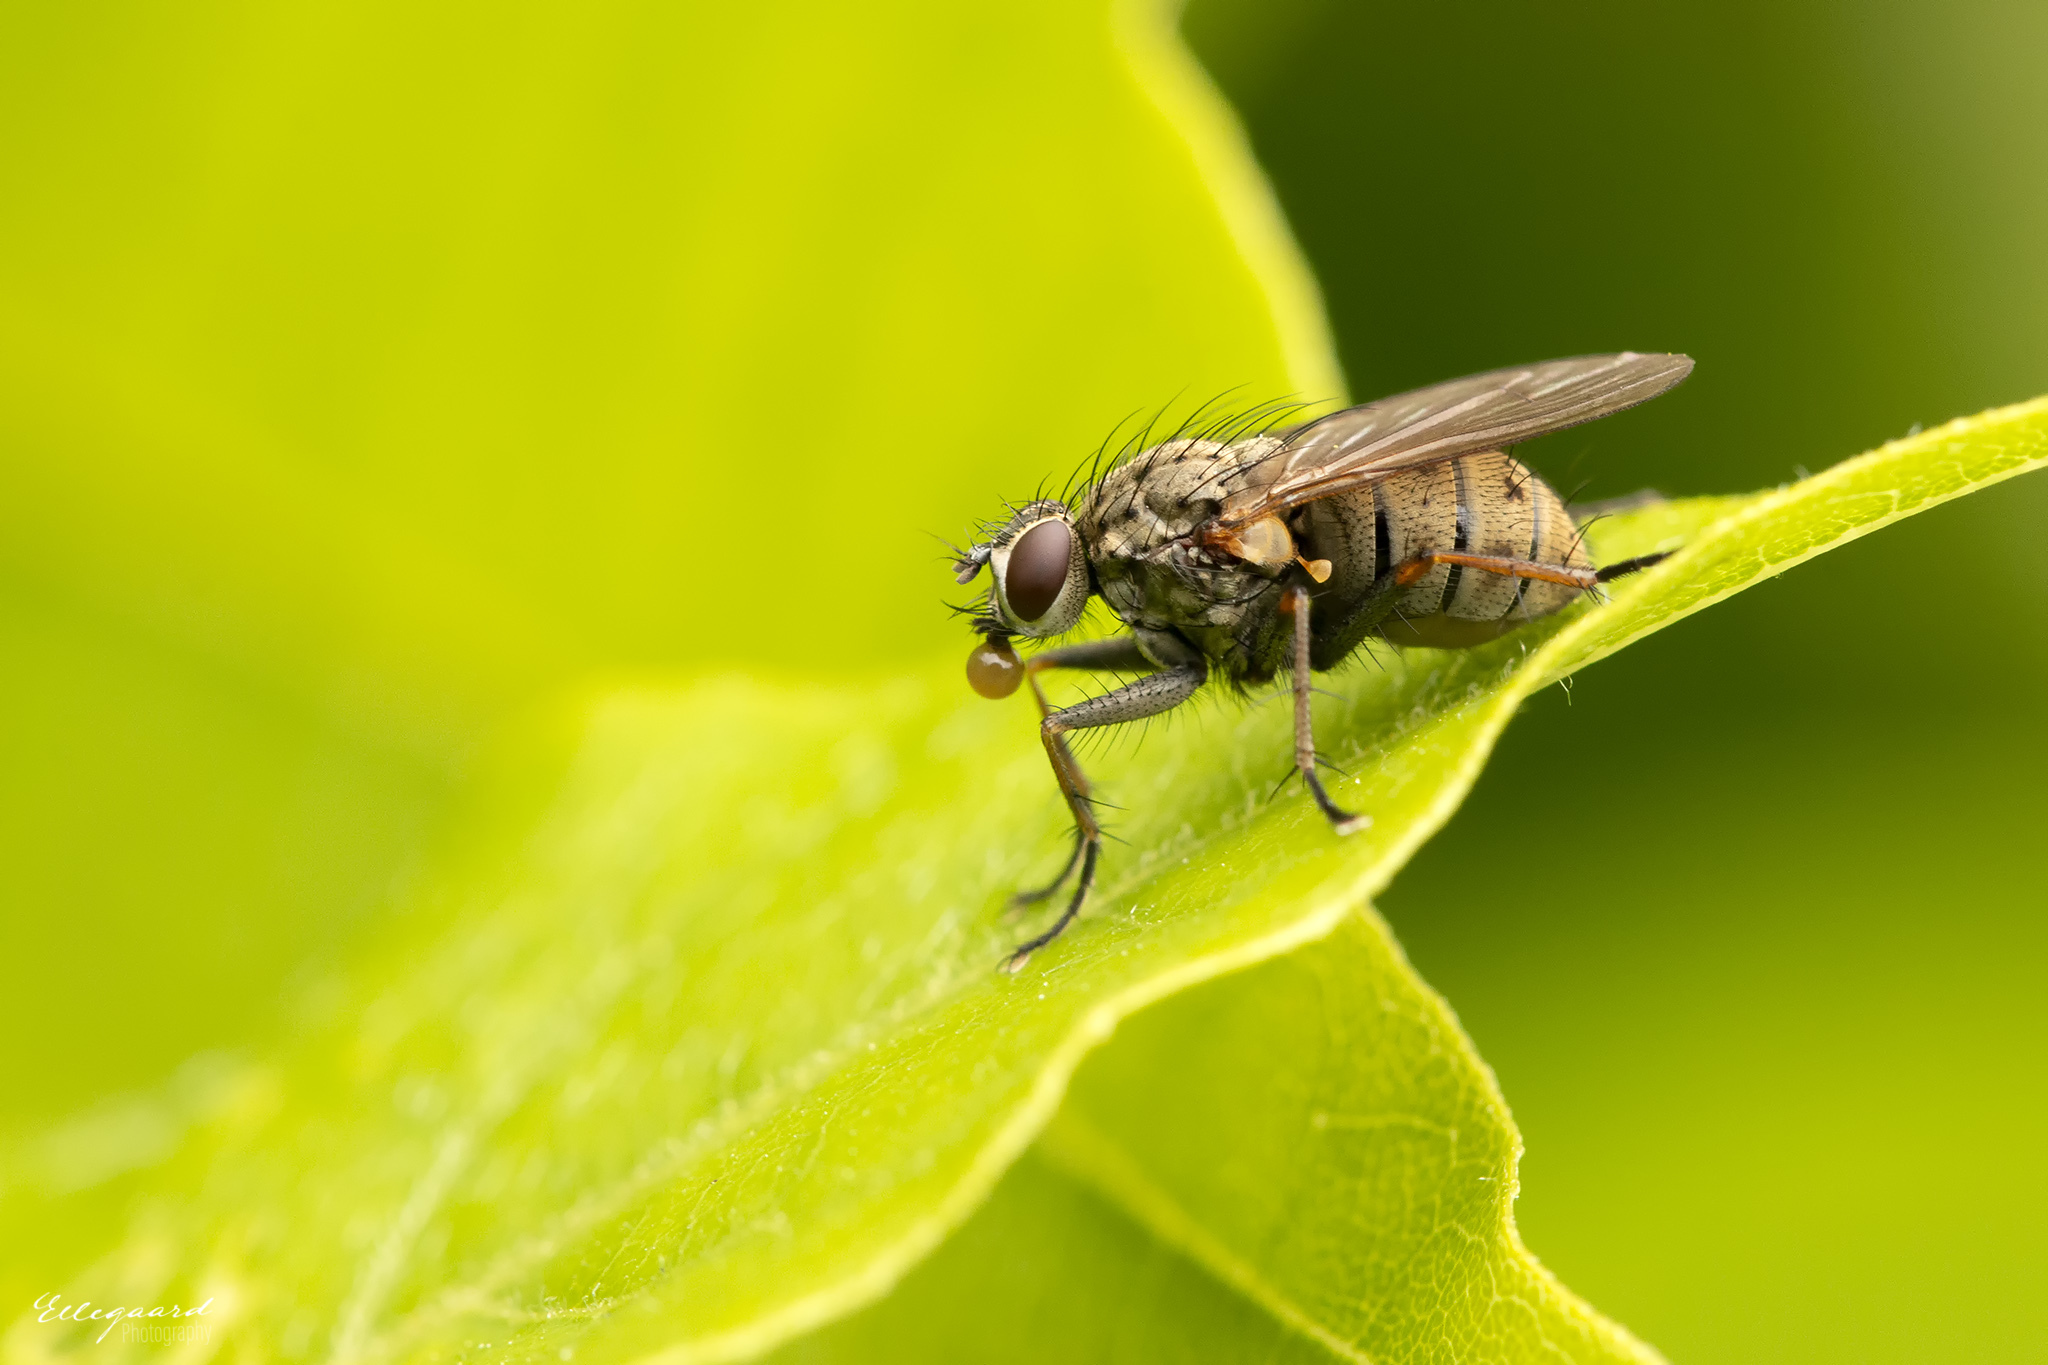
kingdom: Animalia
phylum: Arthropoda
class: Insecta
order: Diptera
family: Muscidae
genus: Coenosia
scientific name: Coenosia tigrina
